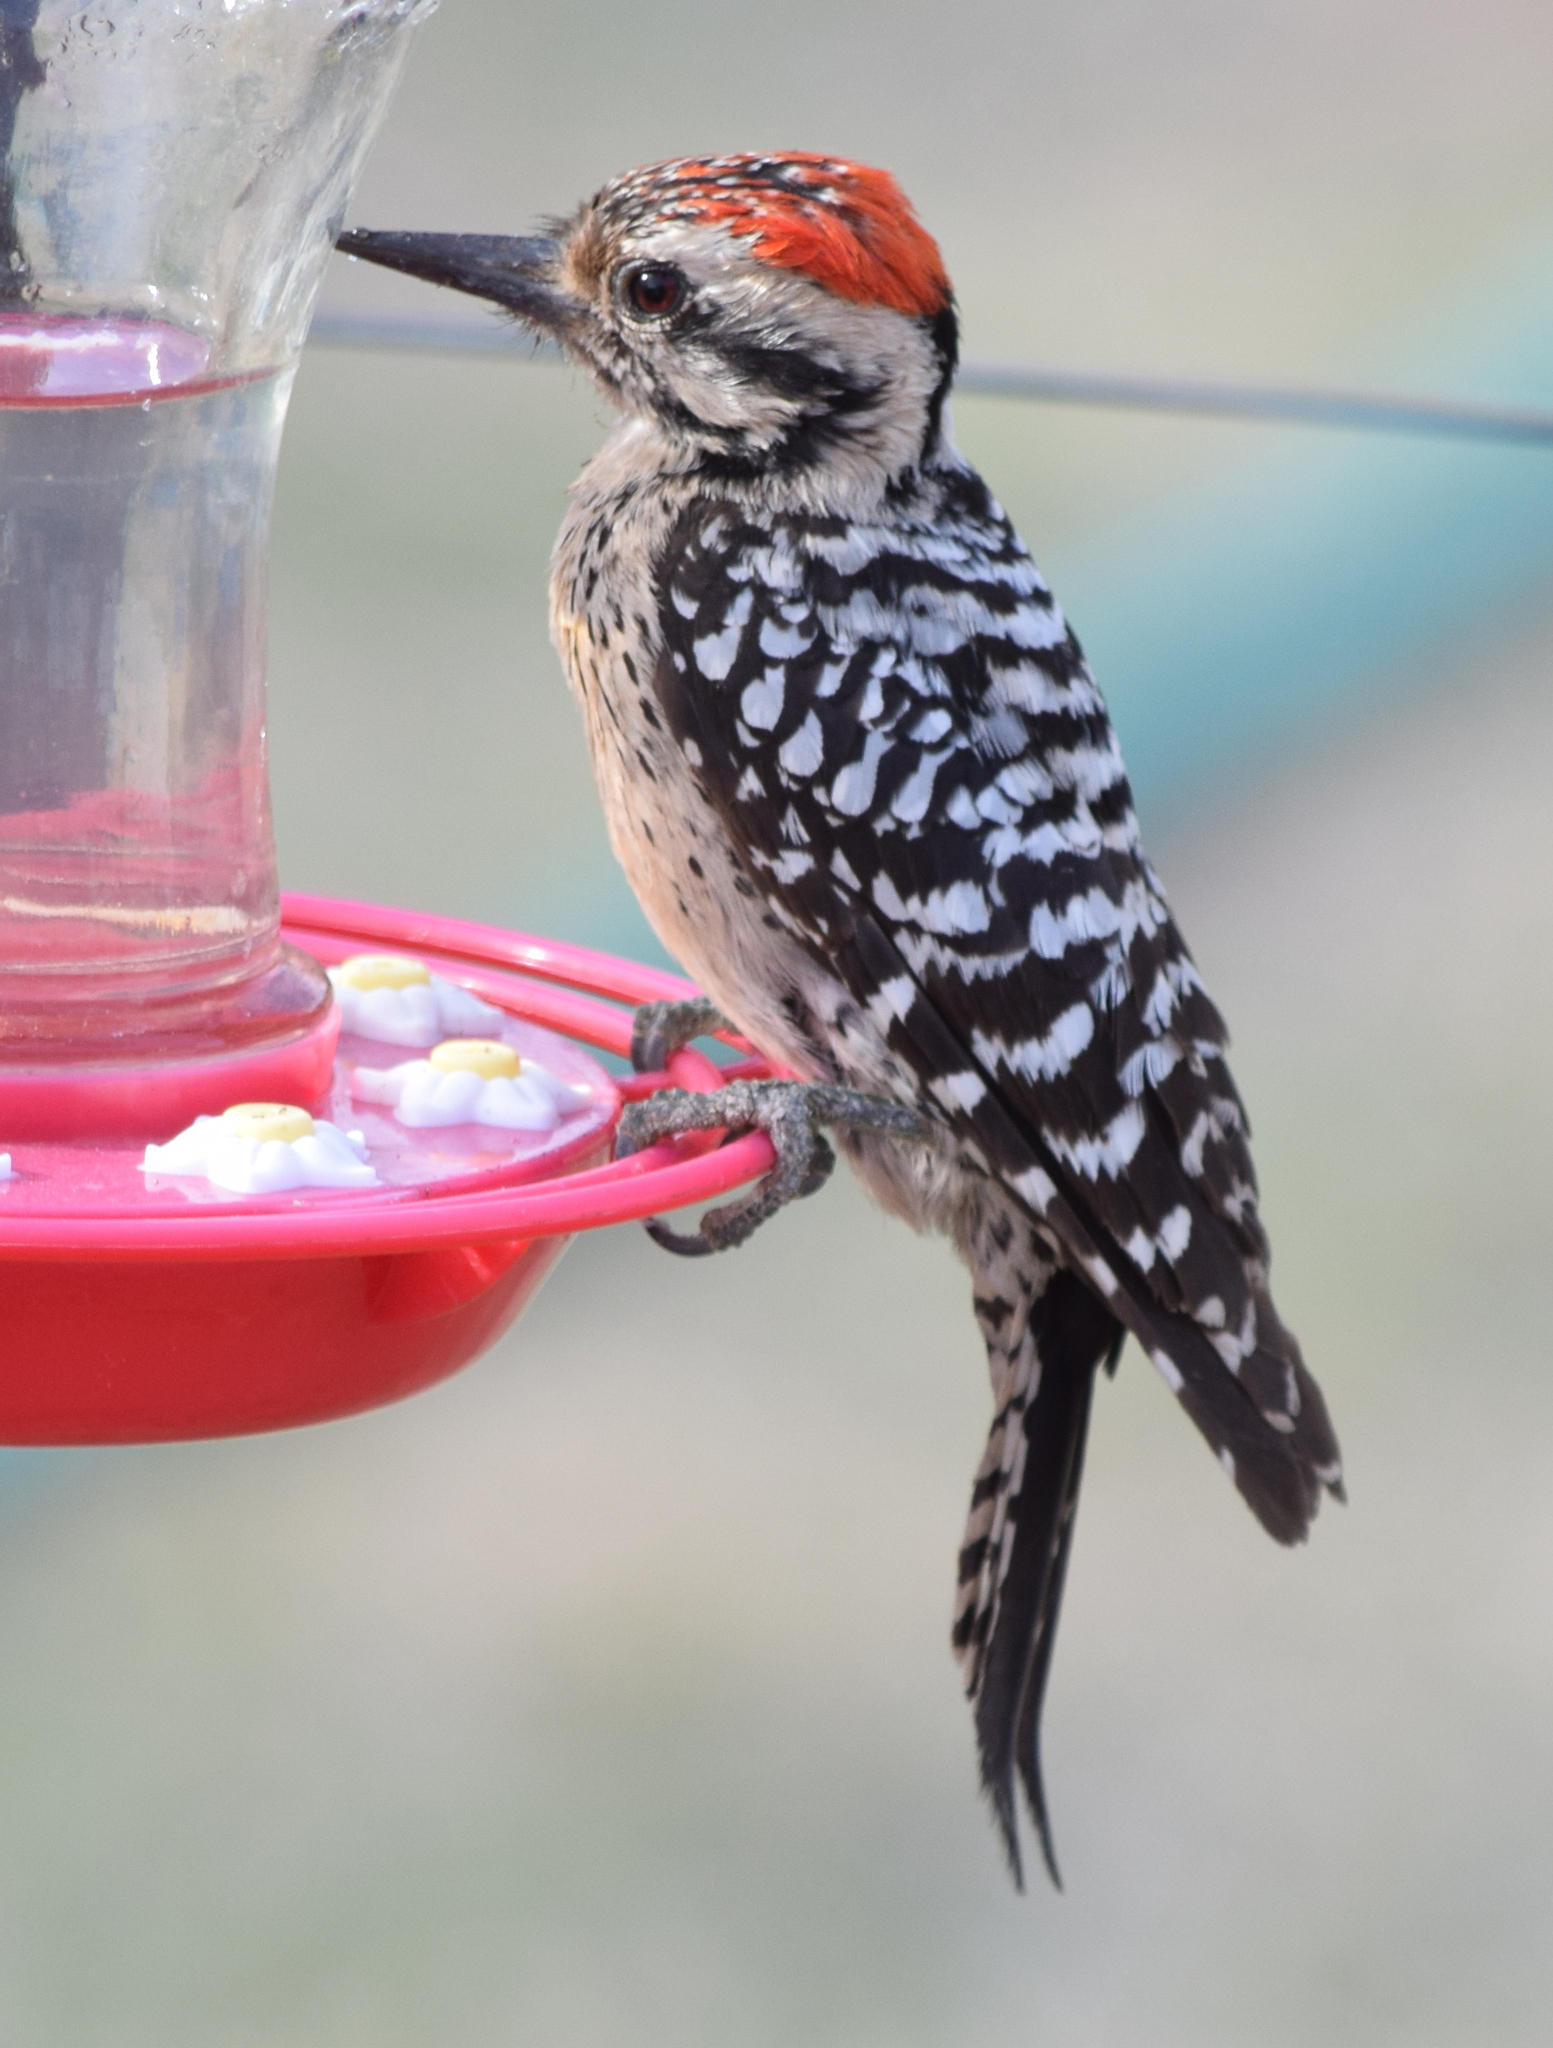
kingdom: Animalia
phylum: Chordata
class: Aves
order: Piciformes
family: Picidae
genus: Dryobates
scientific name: Dryobates scalaris
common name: Ladder-backed woodpecker
